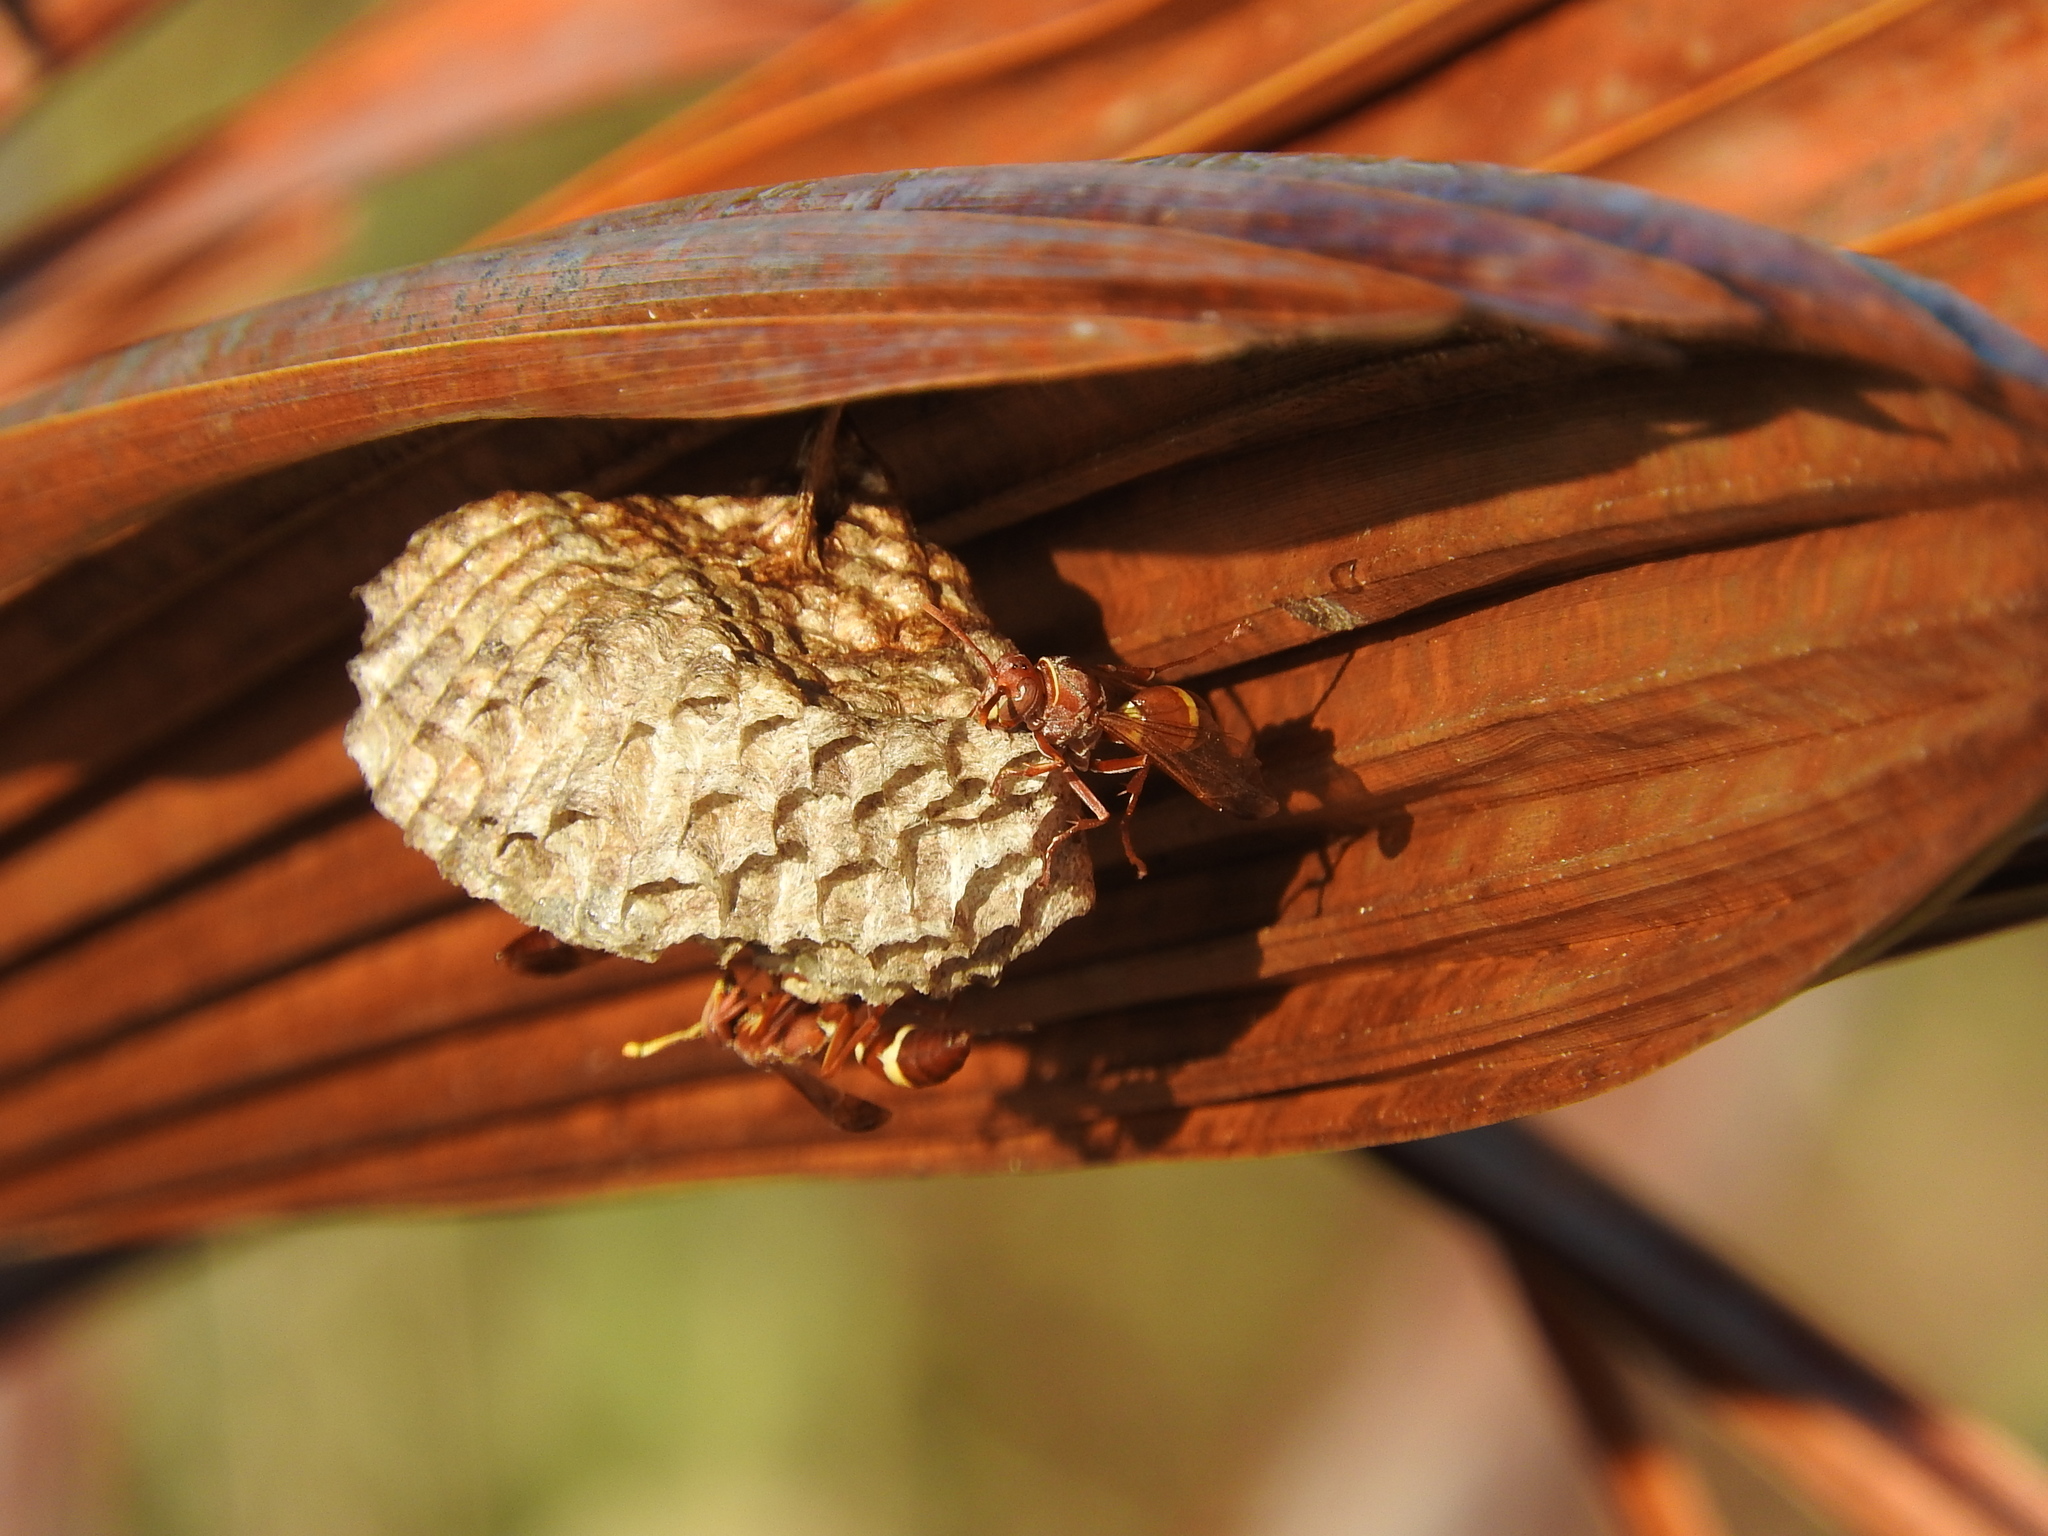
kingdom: Animalia
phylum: Arthropoda
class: Insecta
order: Hymenoptera
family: Eumenidae
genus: Polistes
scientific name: Polistes africanus
